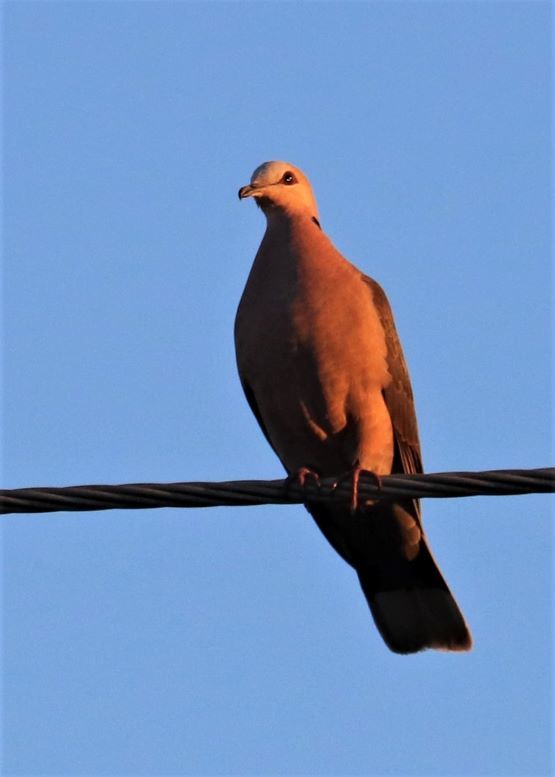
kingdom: Animalia
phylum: Chordata
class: Aves
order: Columbiformes
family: Columbidae
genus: Streptopelia
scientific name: Streptopelia semitorquata
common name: Red-eyed dove
